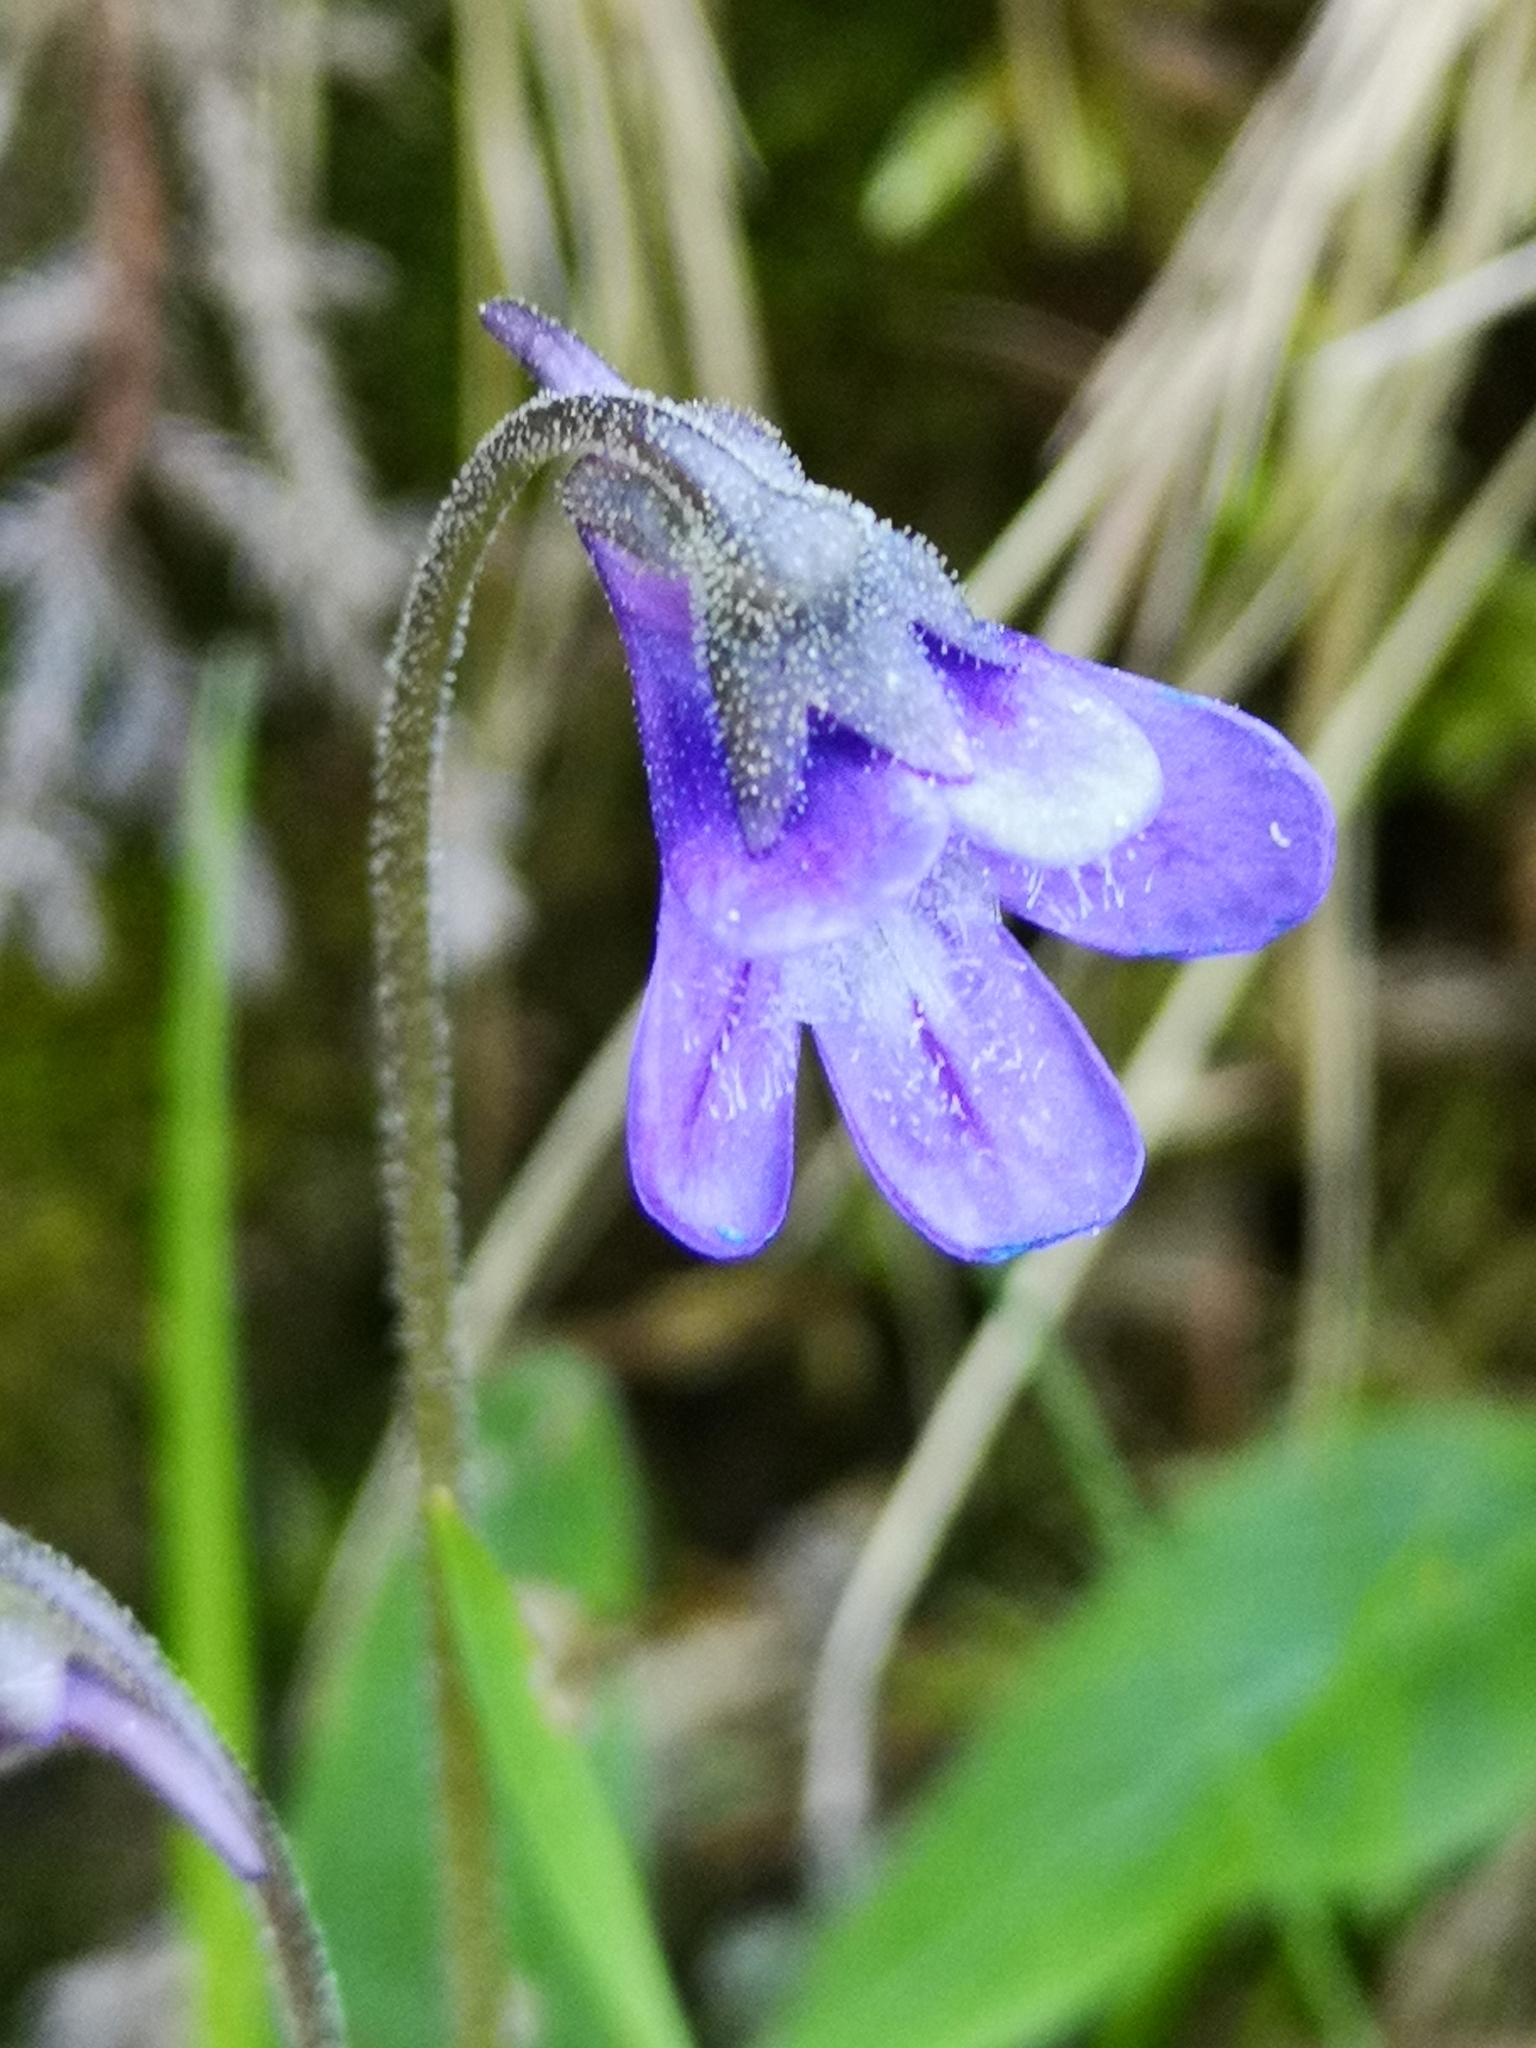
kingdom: Plantae
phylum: Tracheophyta
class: Magnoliopsida
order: Lamiales
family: Lentibulariaceae
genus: Pinguicula
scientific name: Pinguicula vulgaris
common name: Common butterwort
